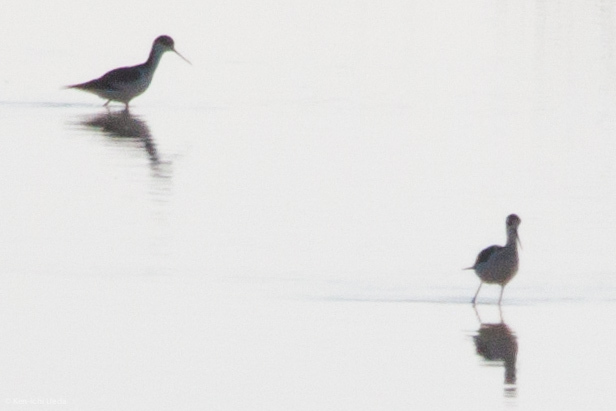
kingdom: Animalia
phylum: Chordata
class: Aves
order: Charadriiformes
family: Recurvirostridae
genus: Himantopus
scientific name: Himantopus mexicanus
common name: Black-necked stilt
